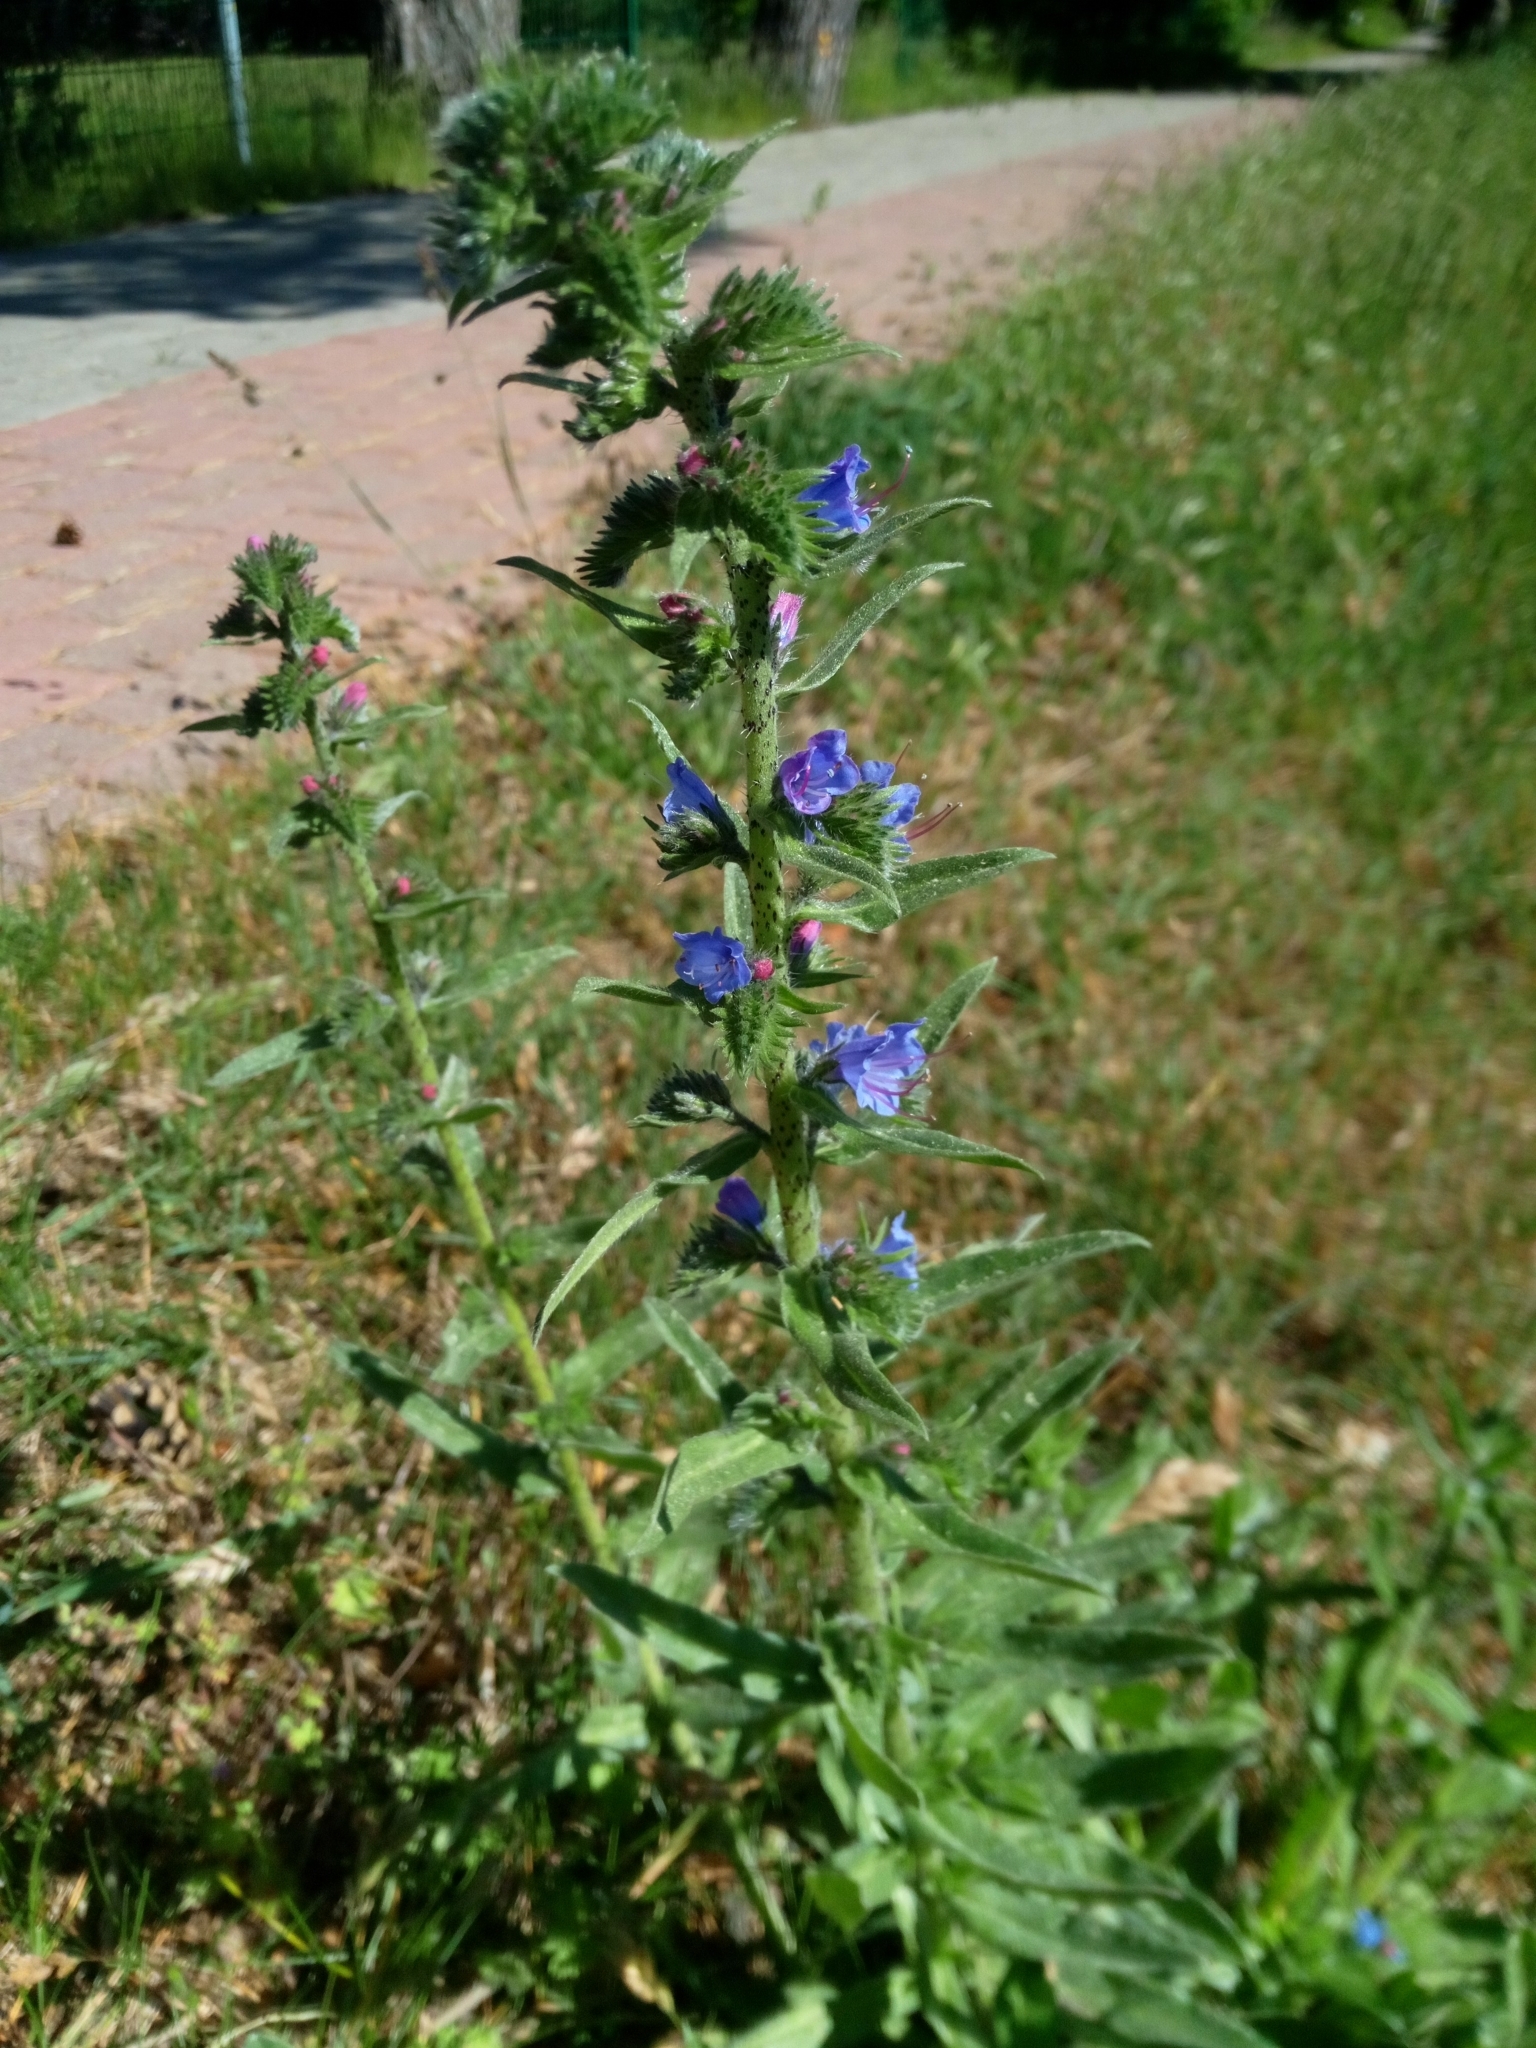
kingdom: Plantae
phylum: Tracheophyta
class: Magnoliopsida
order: Boraginales
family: Boraginaceae
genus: Echium
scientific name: Echium vulgare
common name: Common viper's bugloss
